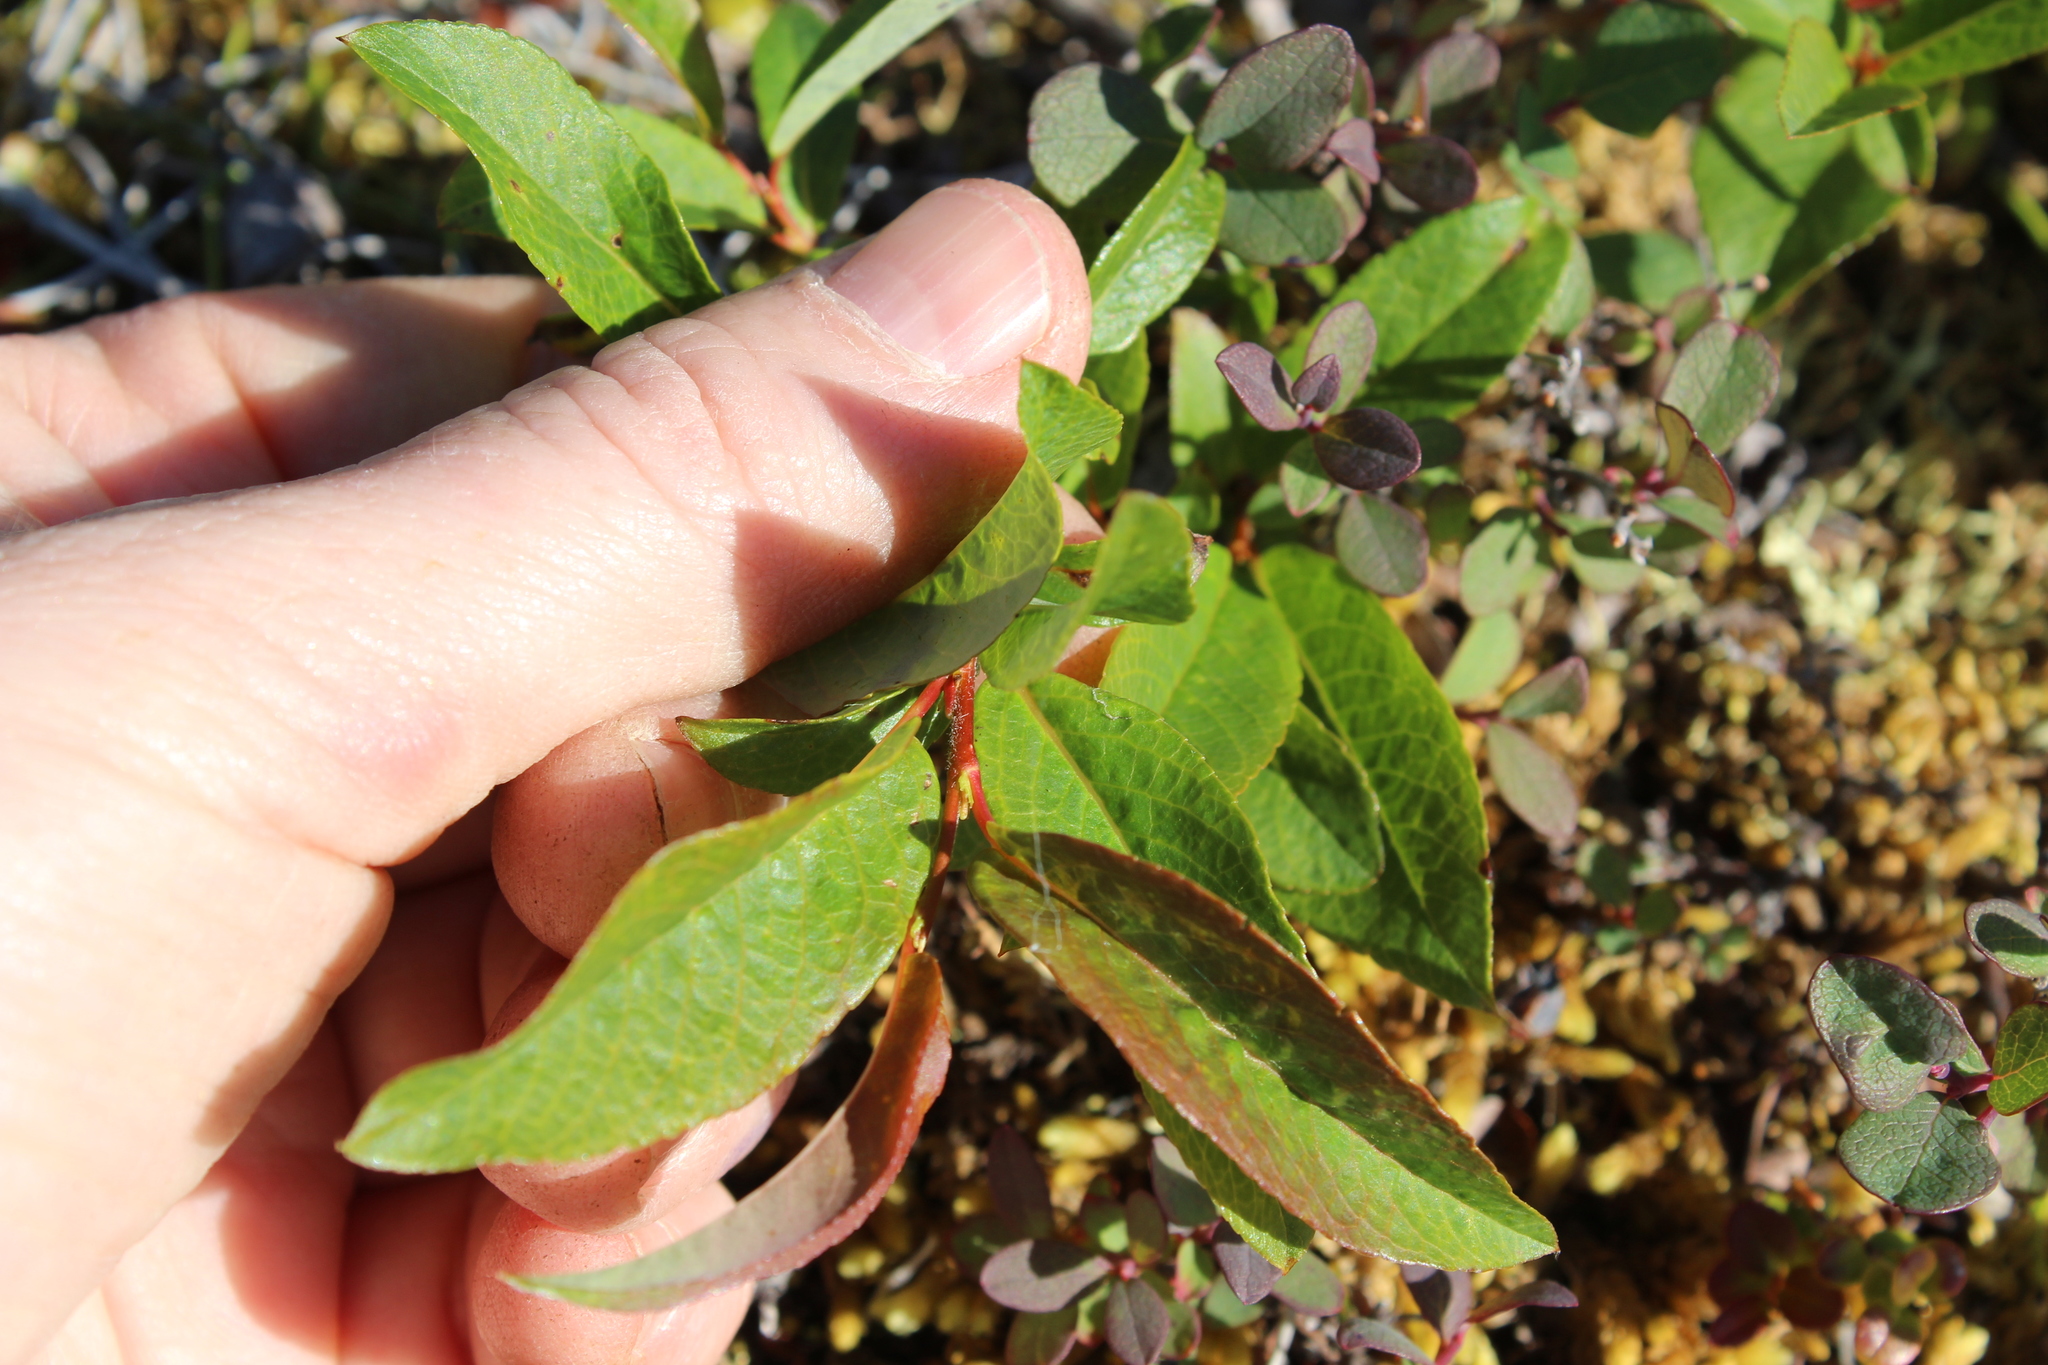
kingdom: Plantae
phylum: Tracheophyta
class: Magnoliopsida
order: Malpighiales
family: Salicaceae
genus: Salix
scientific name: Salix phylicifolia
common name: Tea-leaved willow
